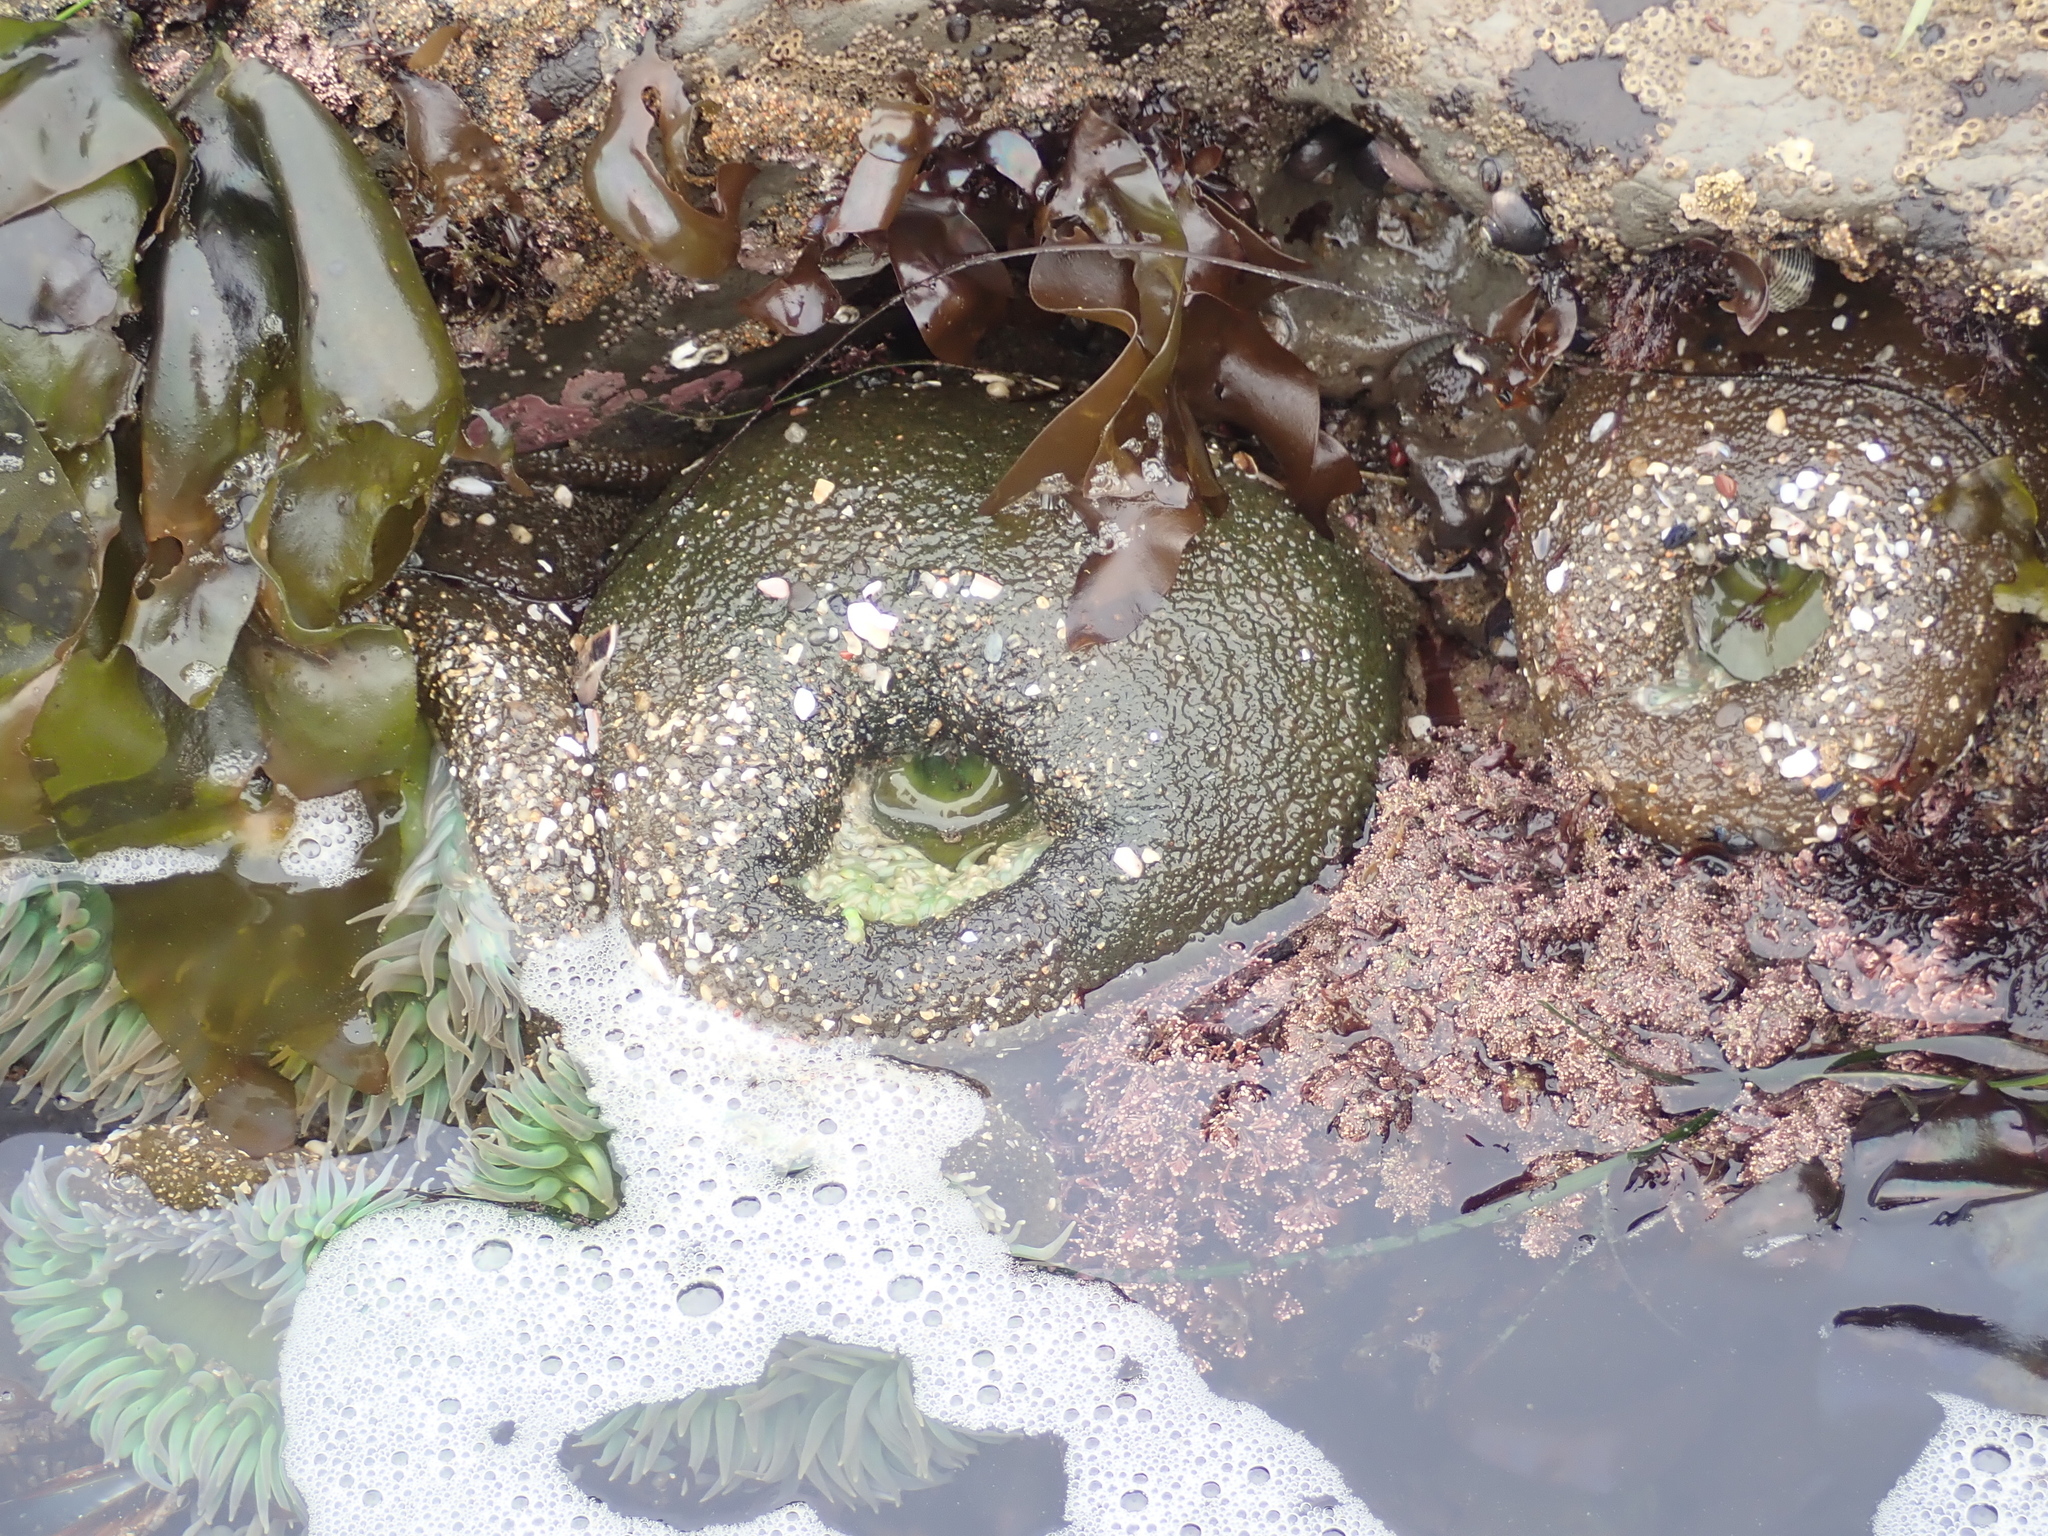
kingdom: Animalia
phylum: Cnidaria
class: Anthozoa
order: Actiniaria
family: Actiniidae
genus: Anthopleura
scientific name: Anthopleura xanthogrammica
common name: Giant green anemone
